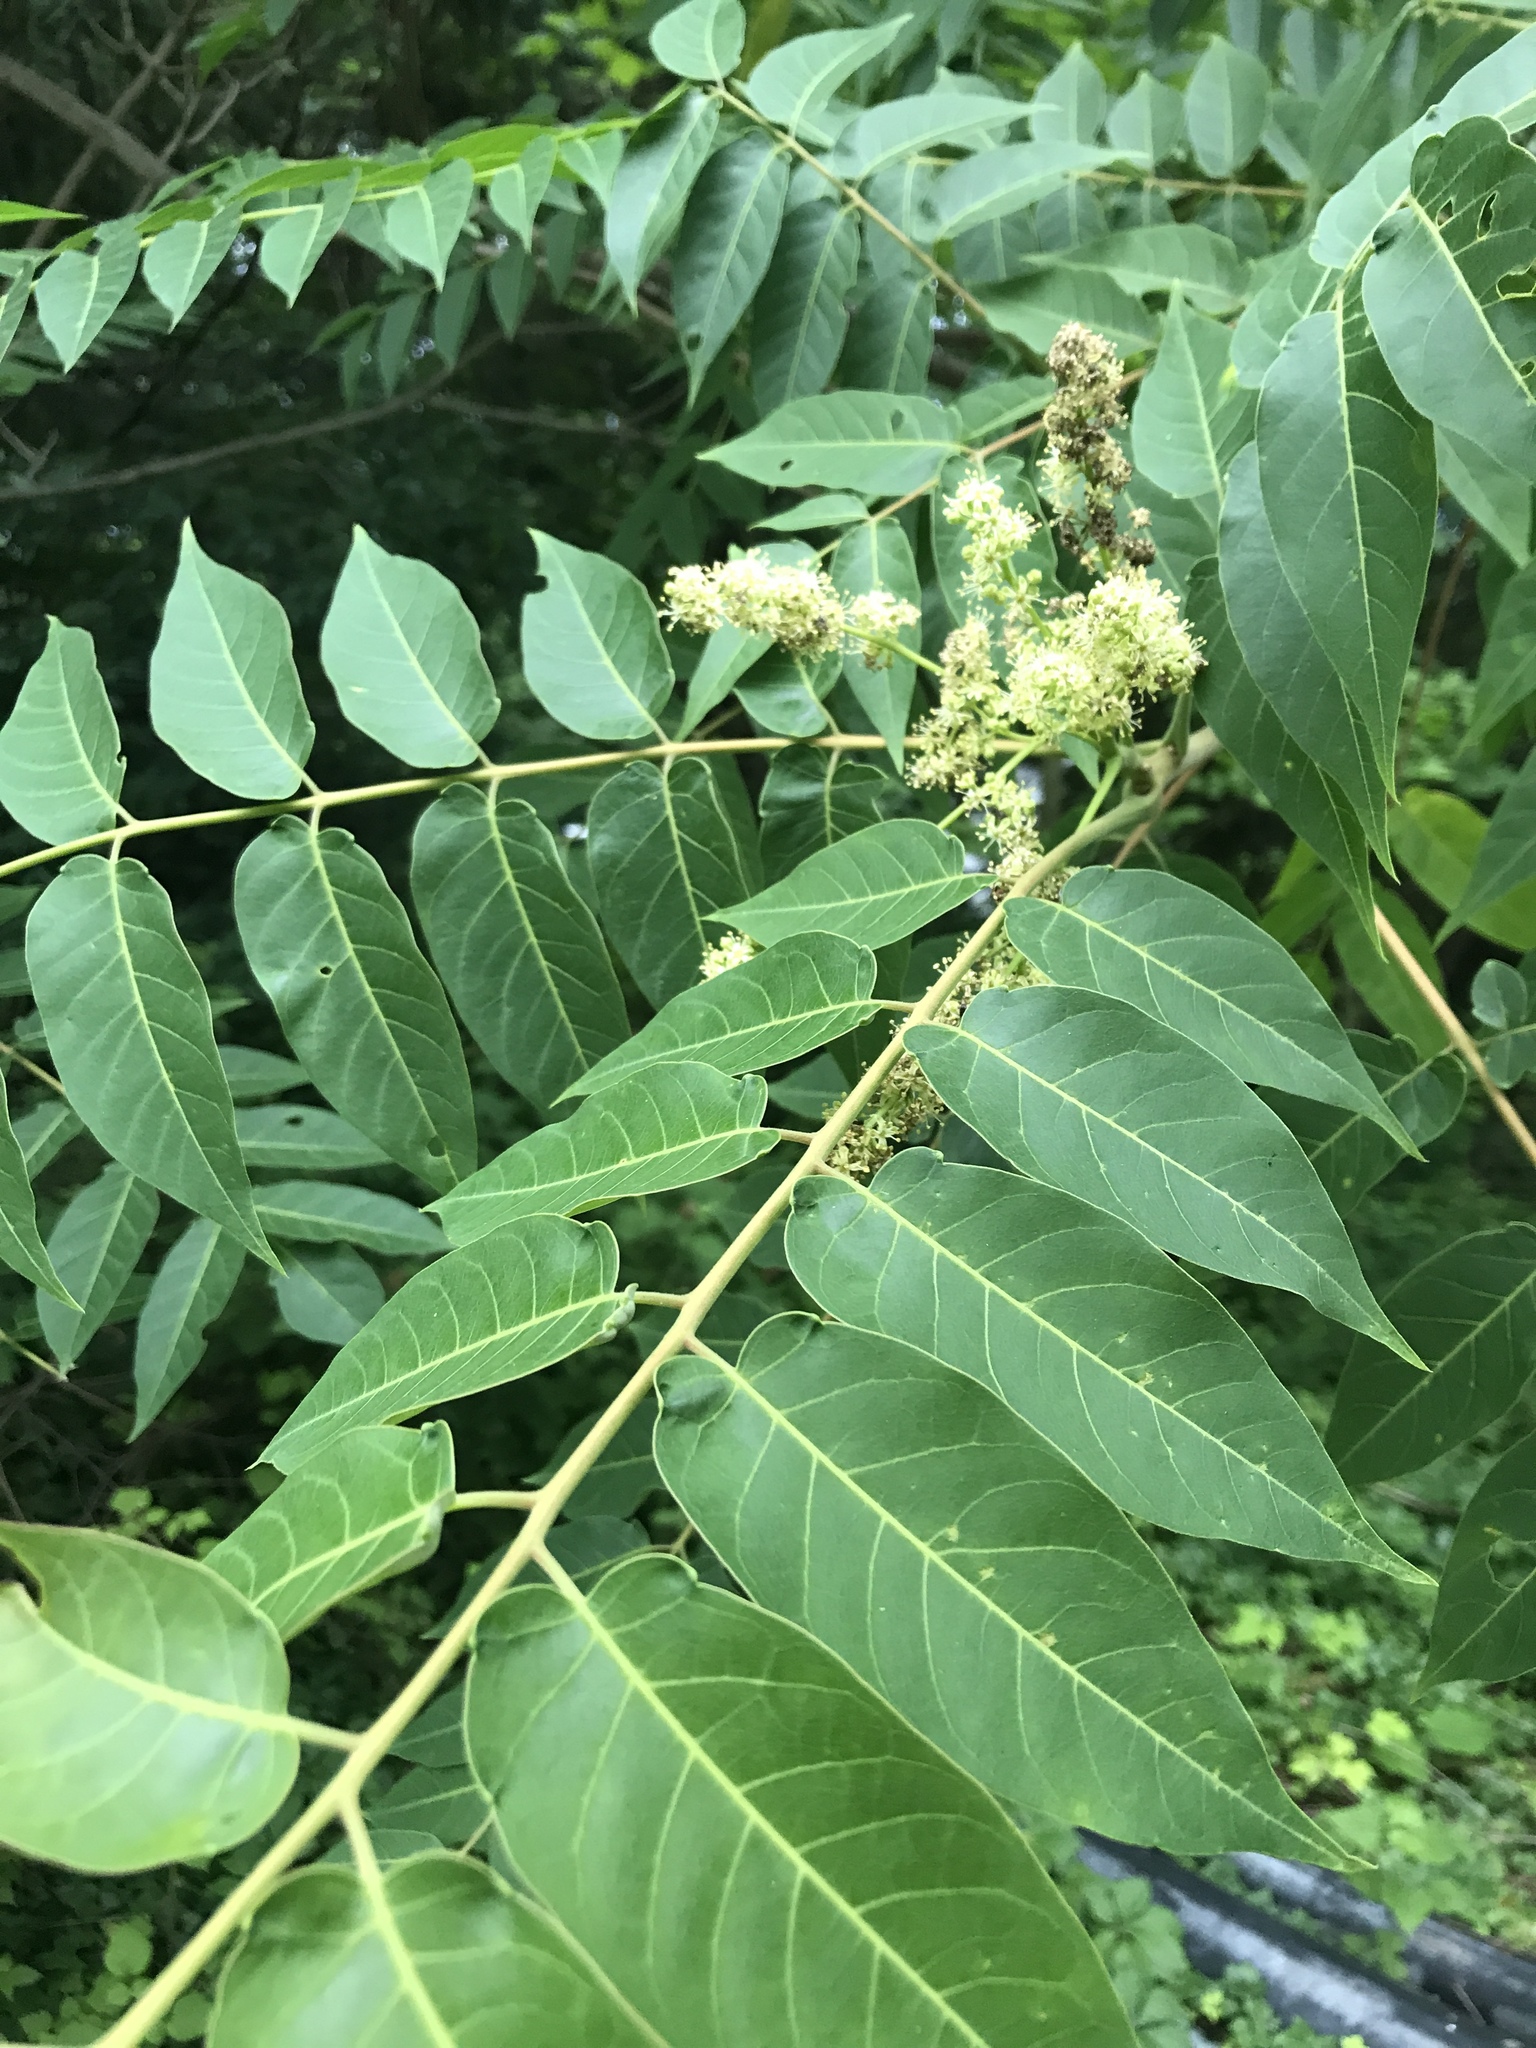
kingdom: Plantae
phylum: Tracheophyta
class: Magnoliopsida
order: Sapindales
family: Simaroubaceae
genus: Ailanthus
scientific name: Ailanthus altissima
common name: Tree-of-heaven
